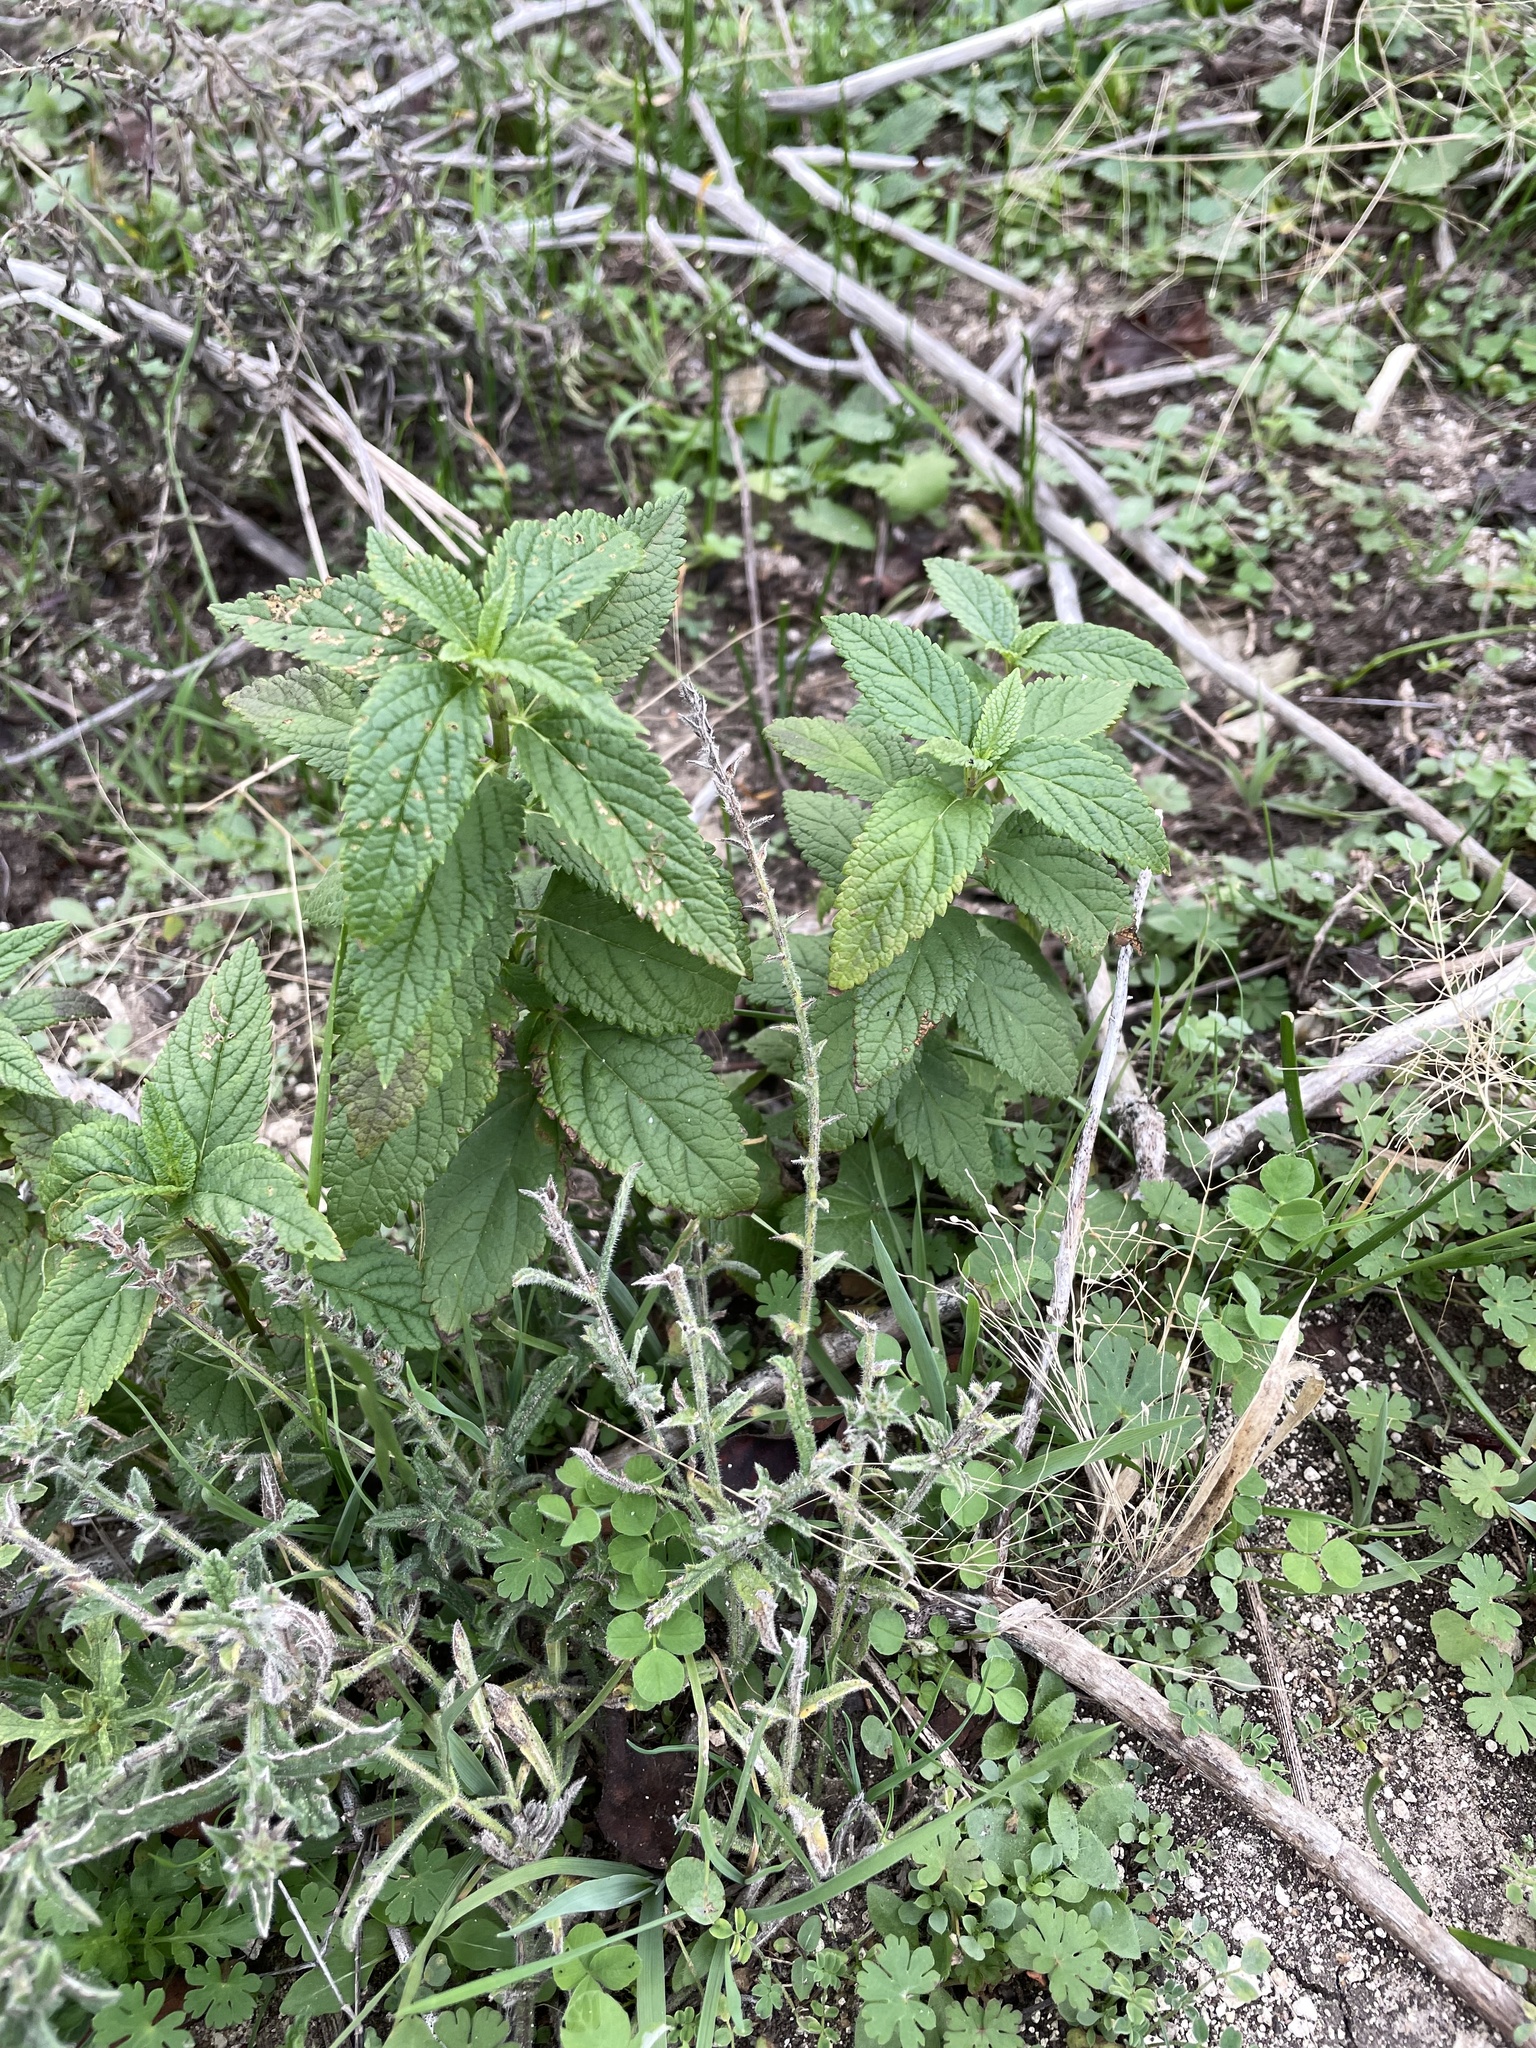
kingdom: Plantae
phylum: Tracheophyta
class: Magnoliopsida
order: Lamiales
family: Lamiaceae
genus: Teucrium
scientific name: Teucrium canadense
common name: American germander
